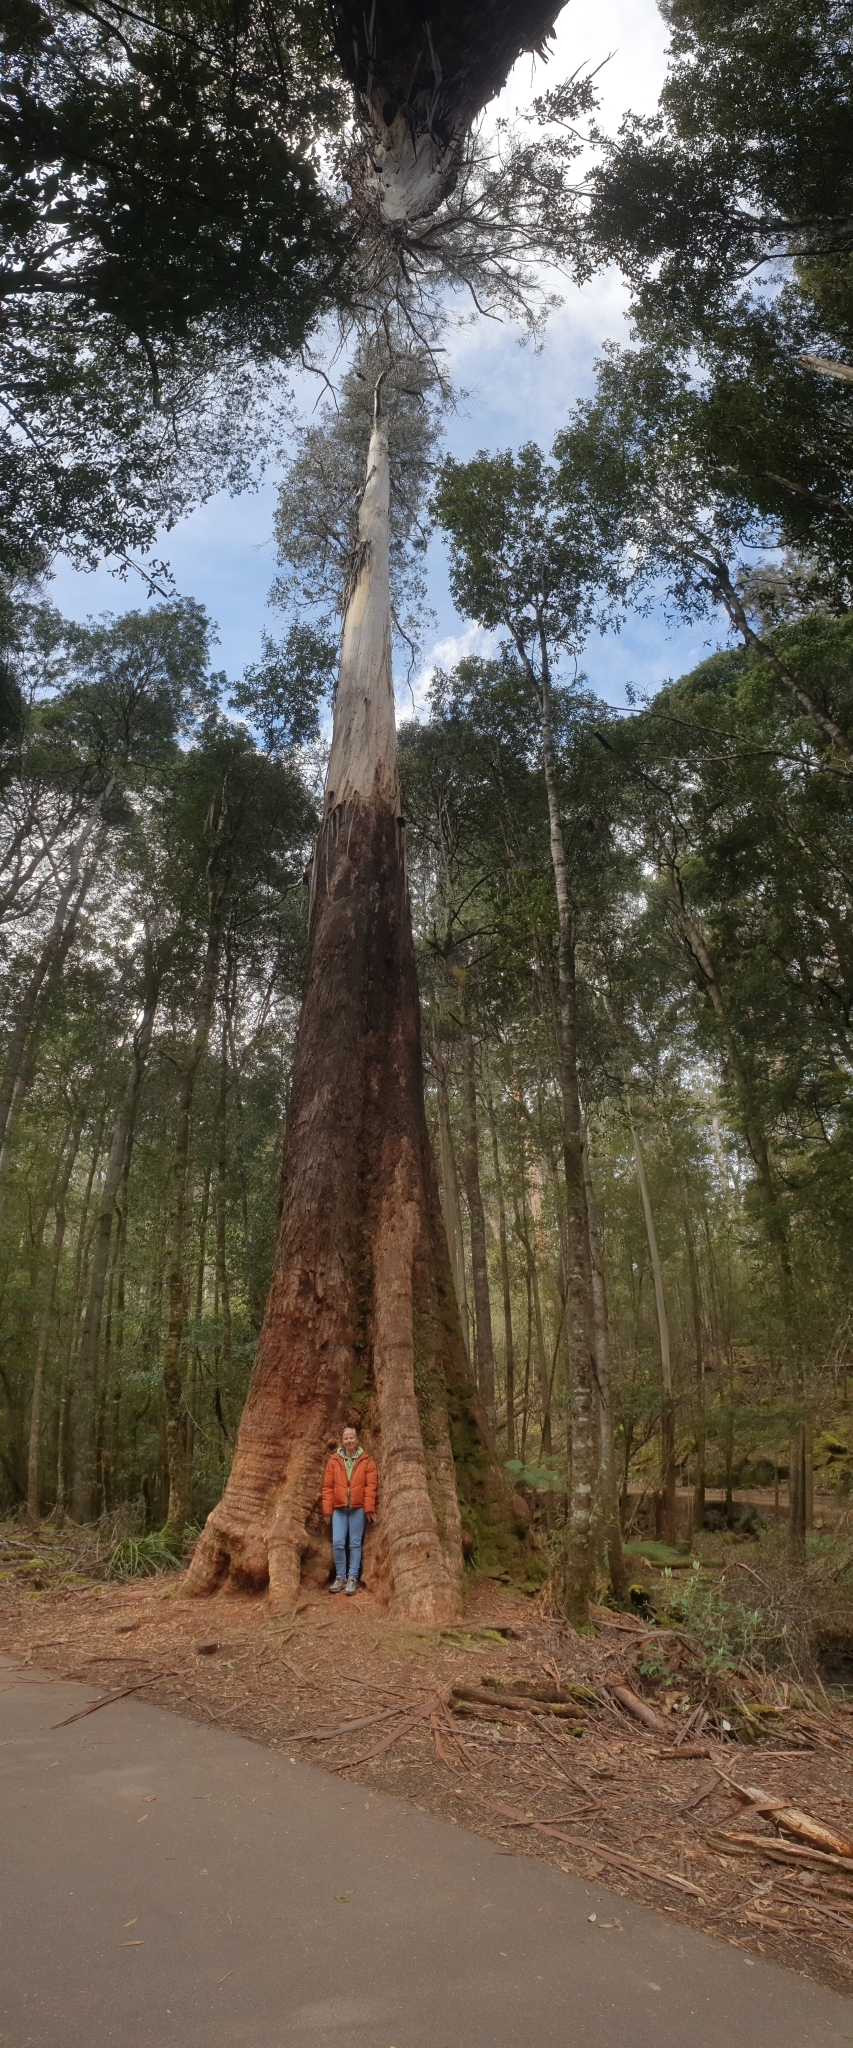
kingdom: Plantae
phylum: Tracheophyta
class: Magnoliopsida
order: Myrtales
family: Myrtaceae
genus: Eucalyptus
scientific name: Eucalyptus regnans
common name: Stringy gum
